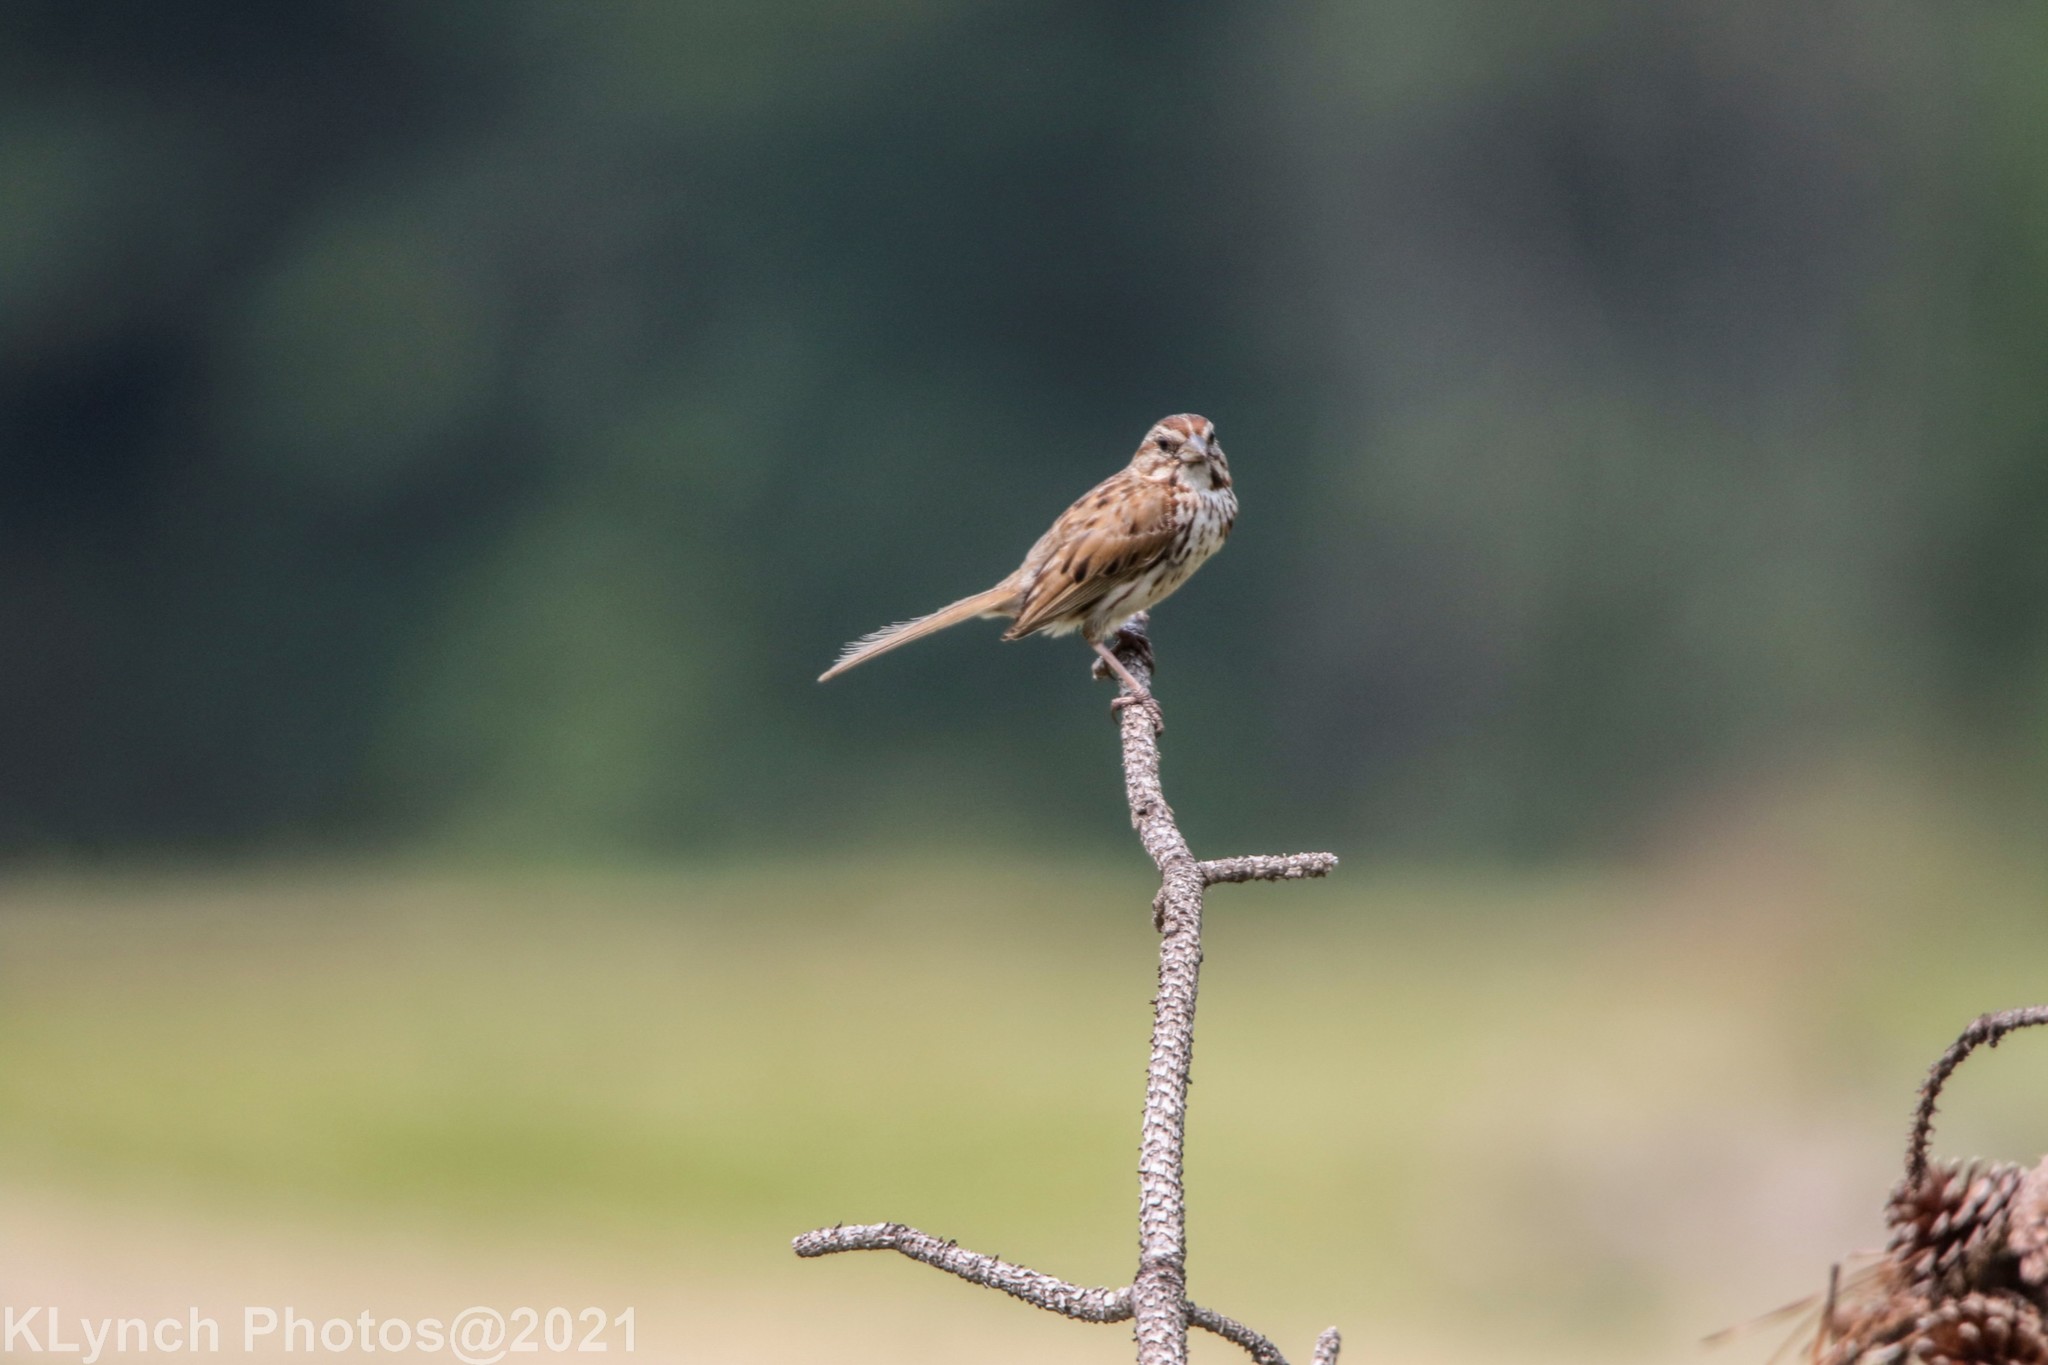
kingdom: Animalia
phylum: Chordata
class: Aves
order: Passeriformes
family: Passerellidae
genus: Melospiza
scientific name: Melospiza melodia
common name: Song sparrow
